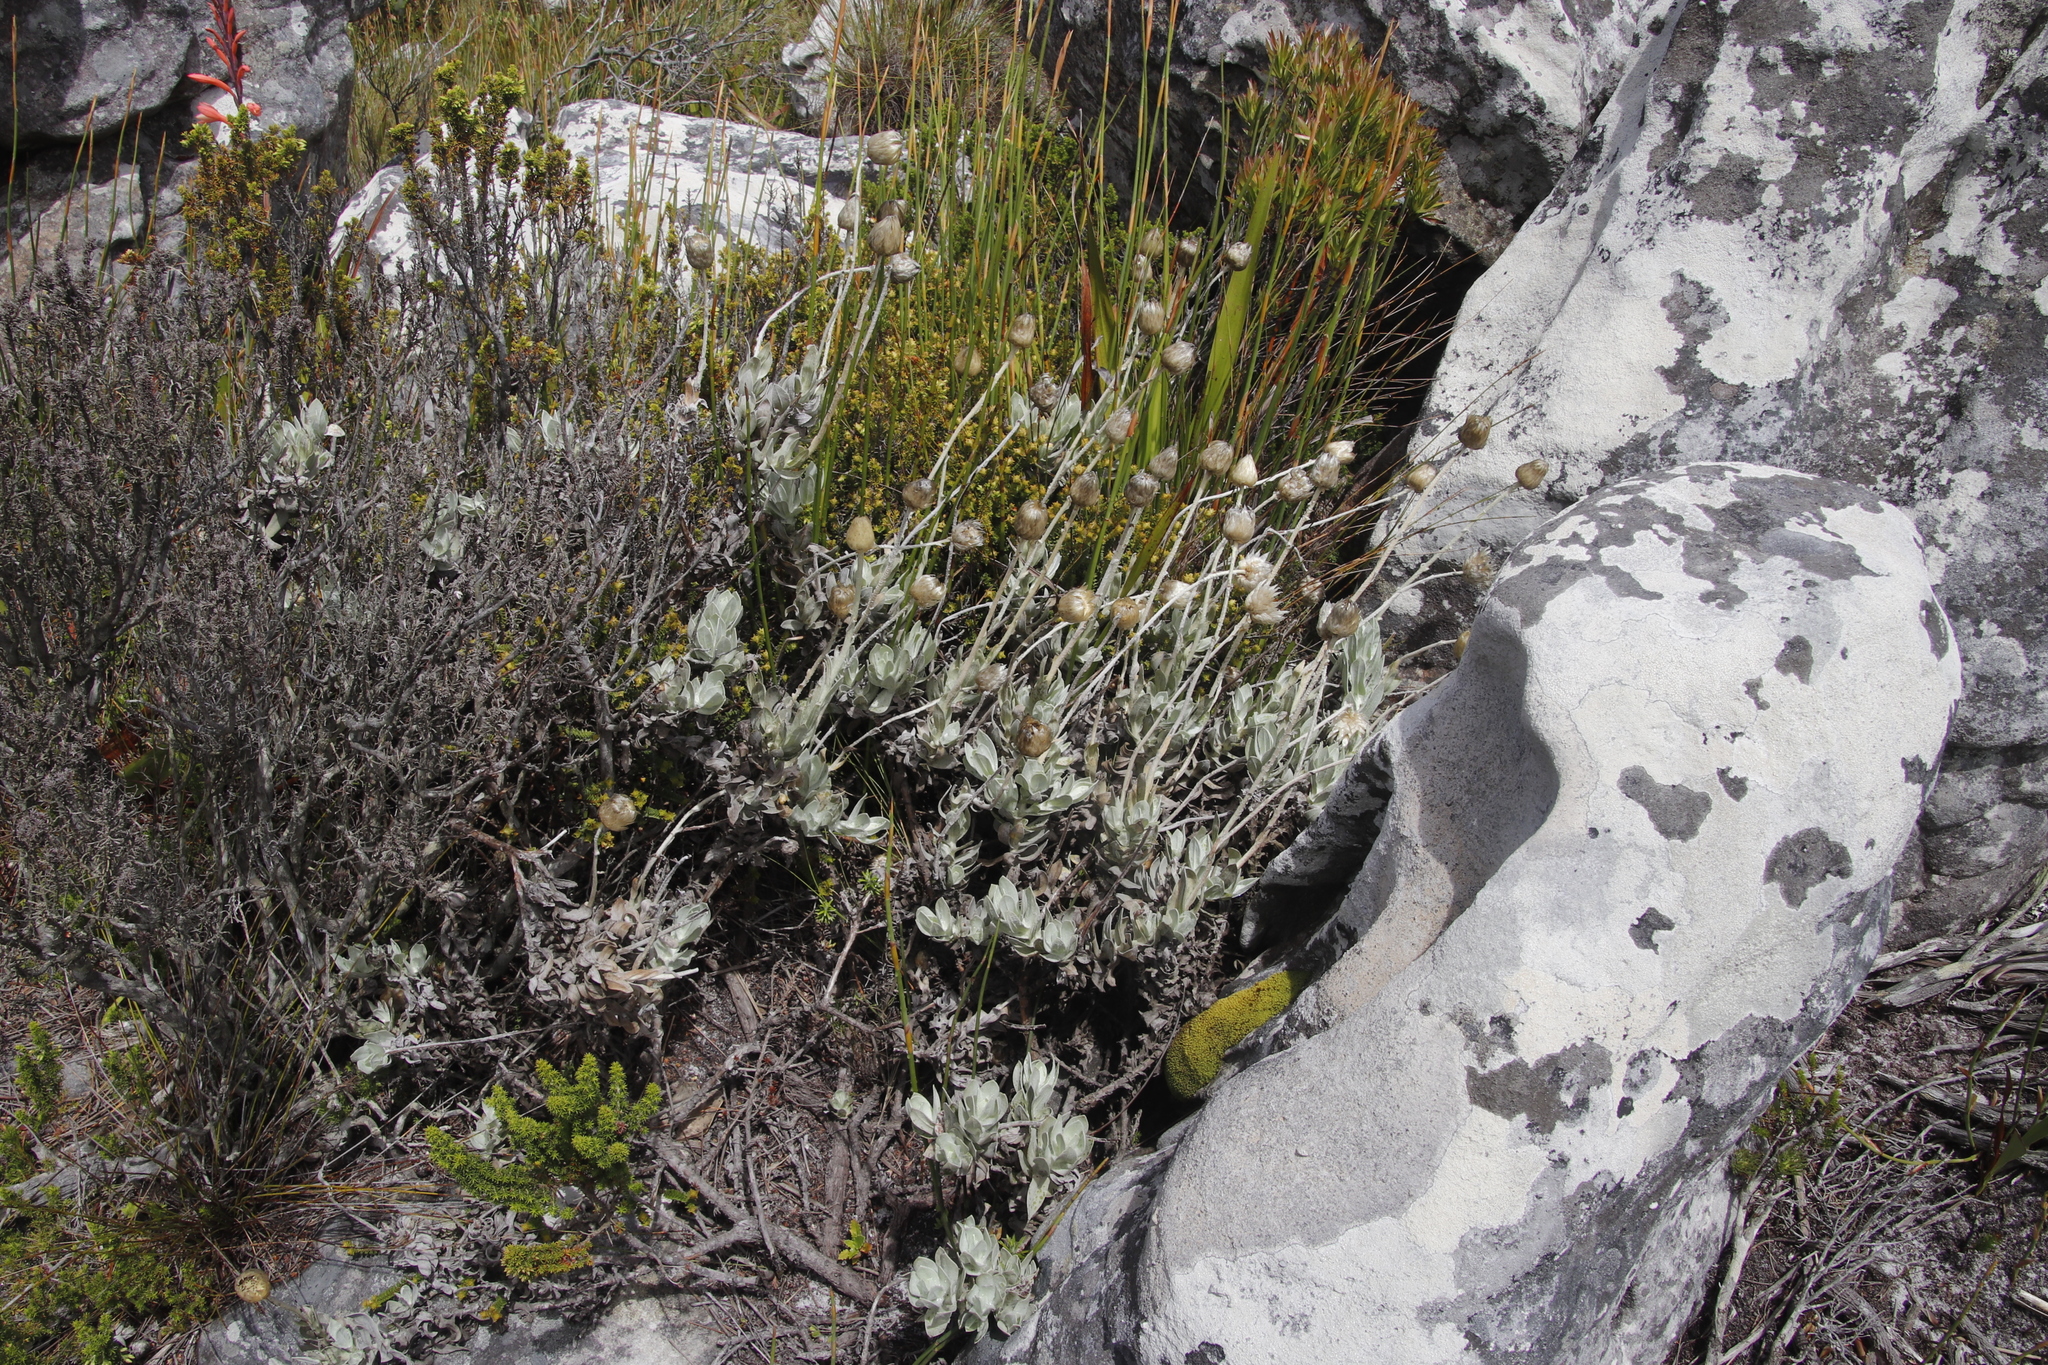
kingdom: Plantae
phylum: Tracheophyta
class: Magnoliopsida
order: Asterales
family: Asteraceae
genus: Syncarpha
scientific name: Syncarpha speciosissima
